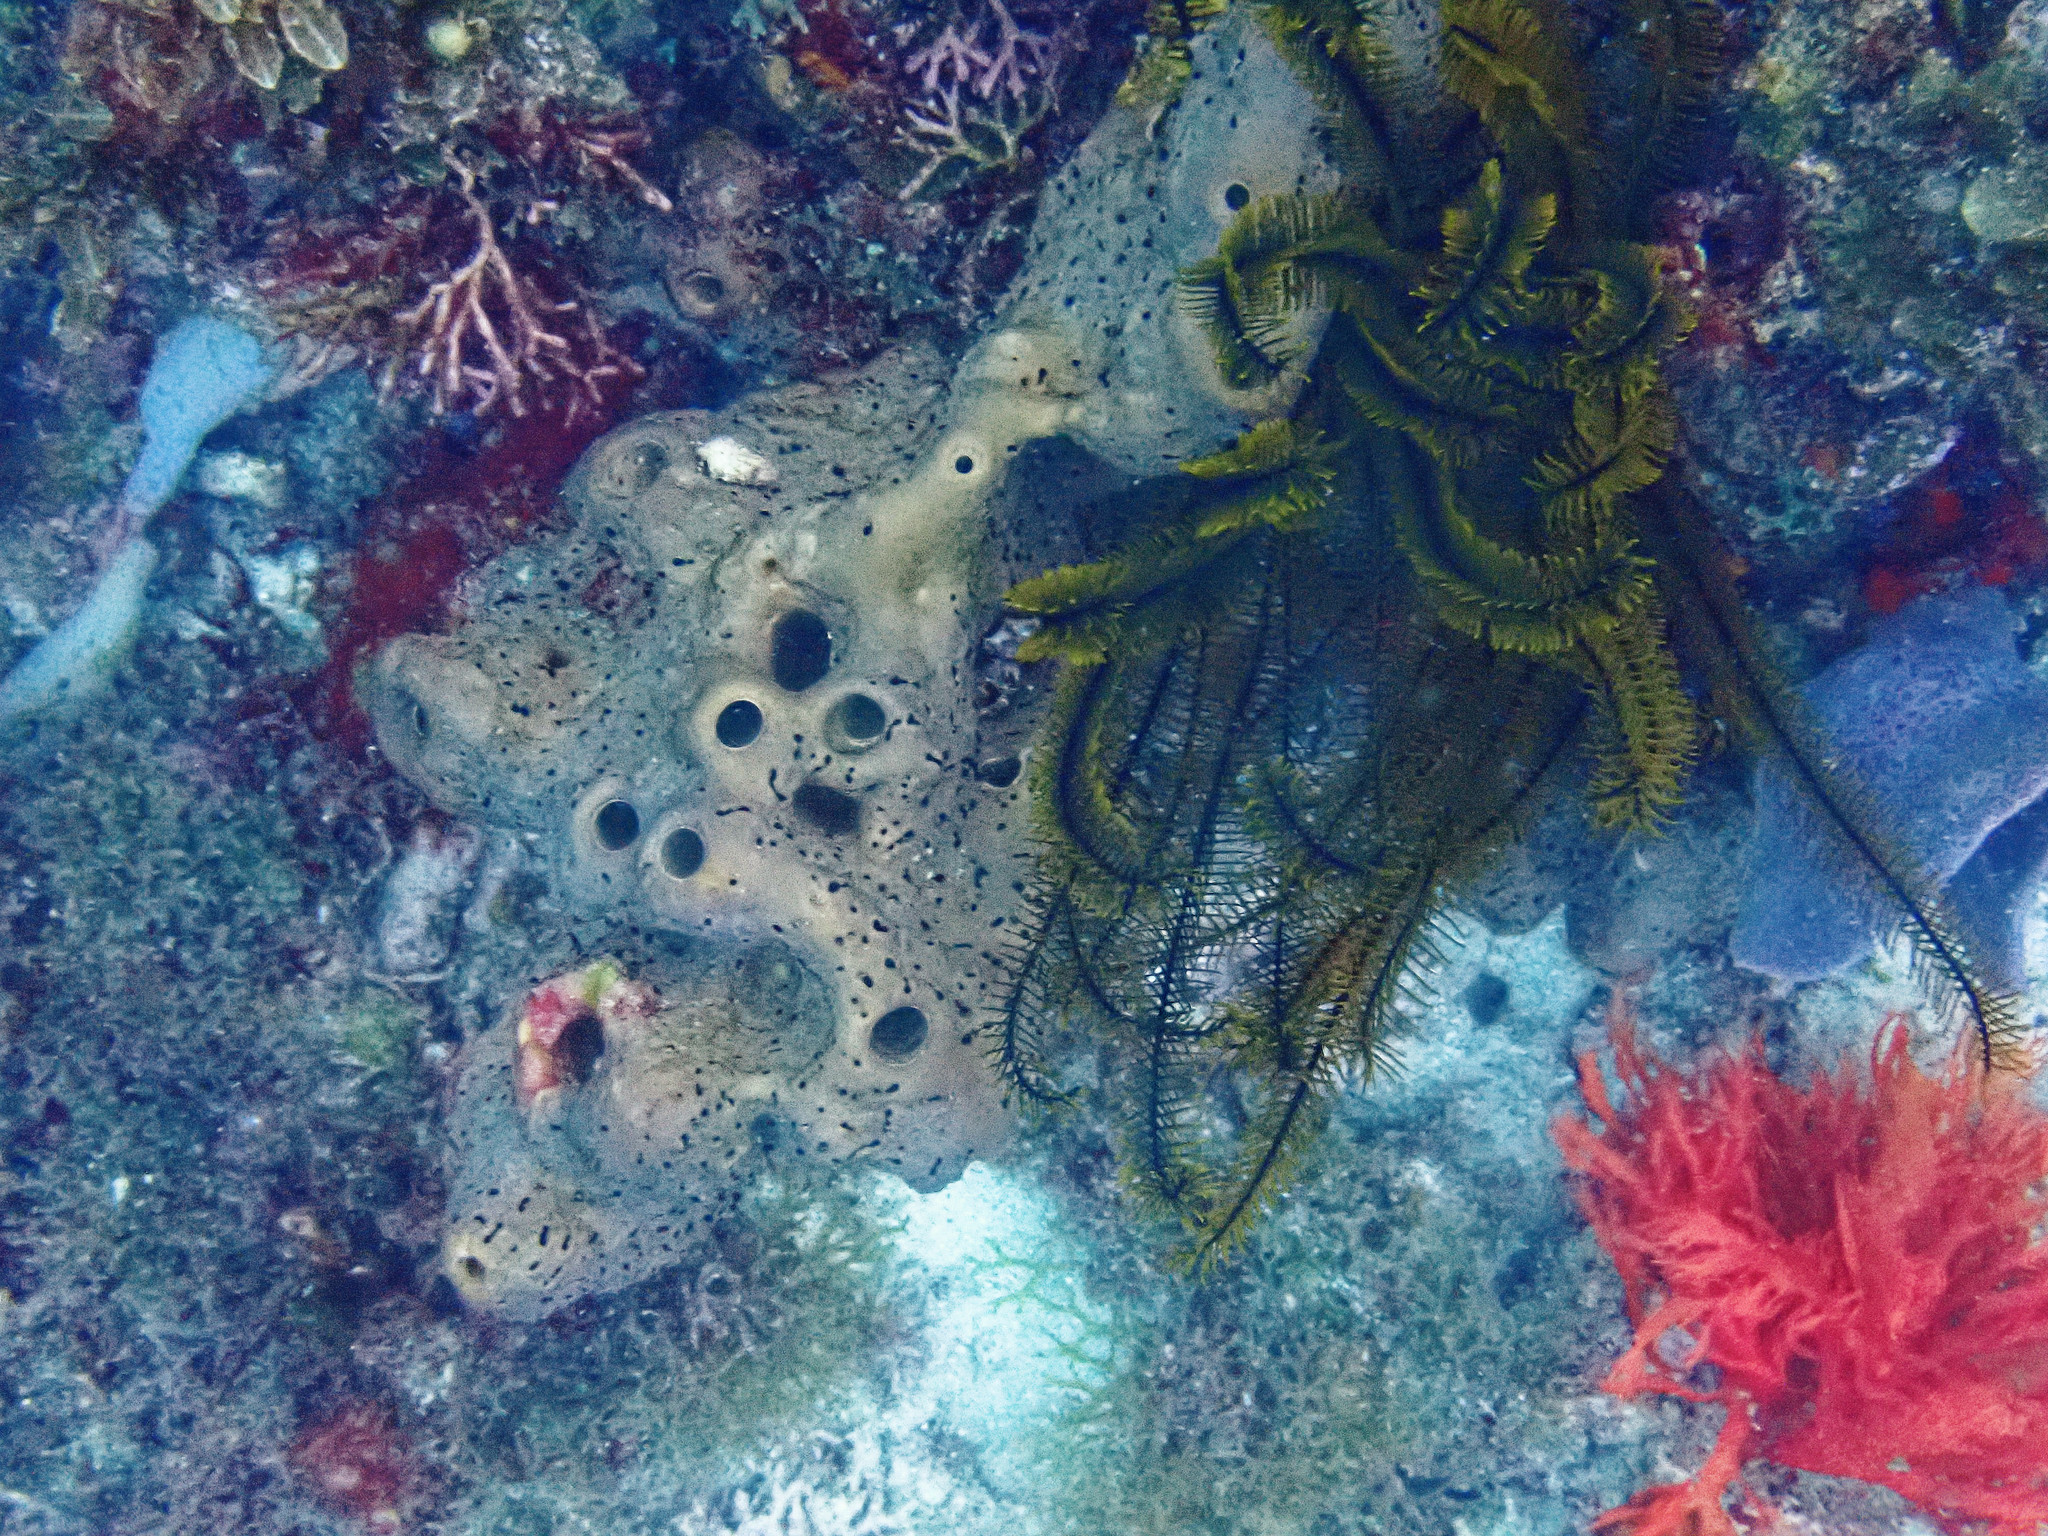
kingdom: Animalia
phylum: Porifera
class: Demospongiae
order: Agelasida
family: Agelasidae
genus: Agelas
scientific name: Agelas conifera
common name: Brown tube sponge
